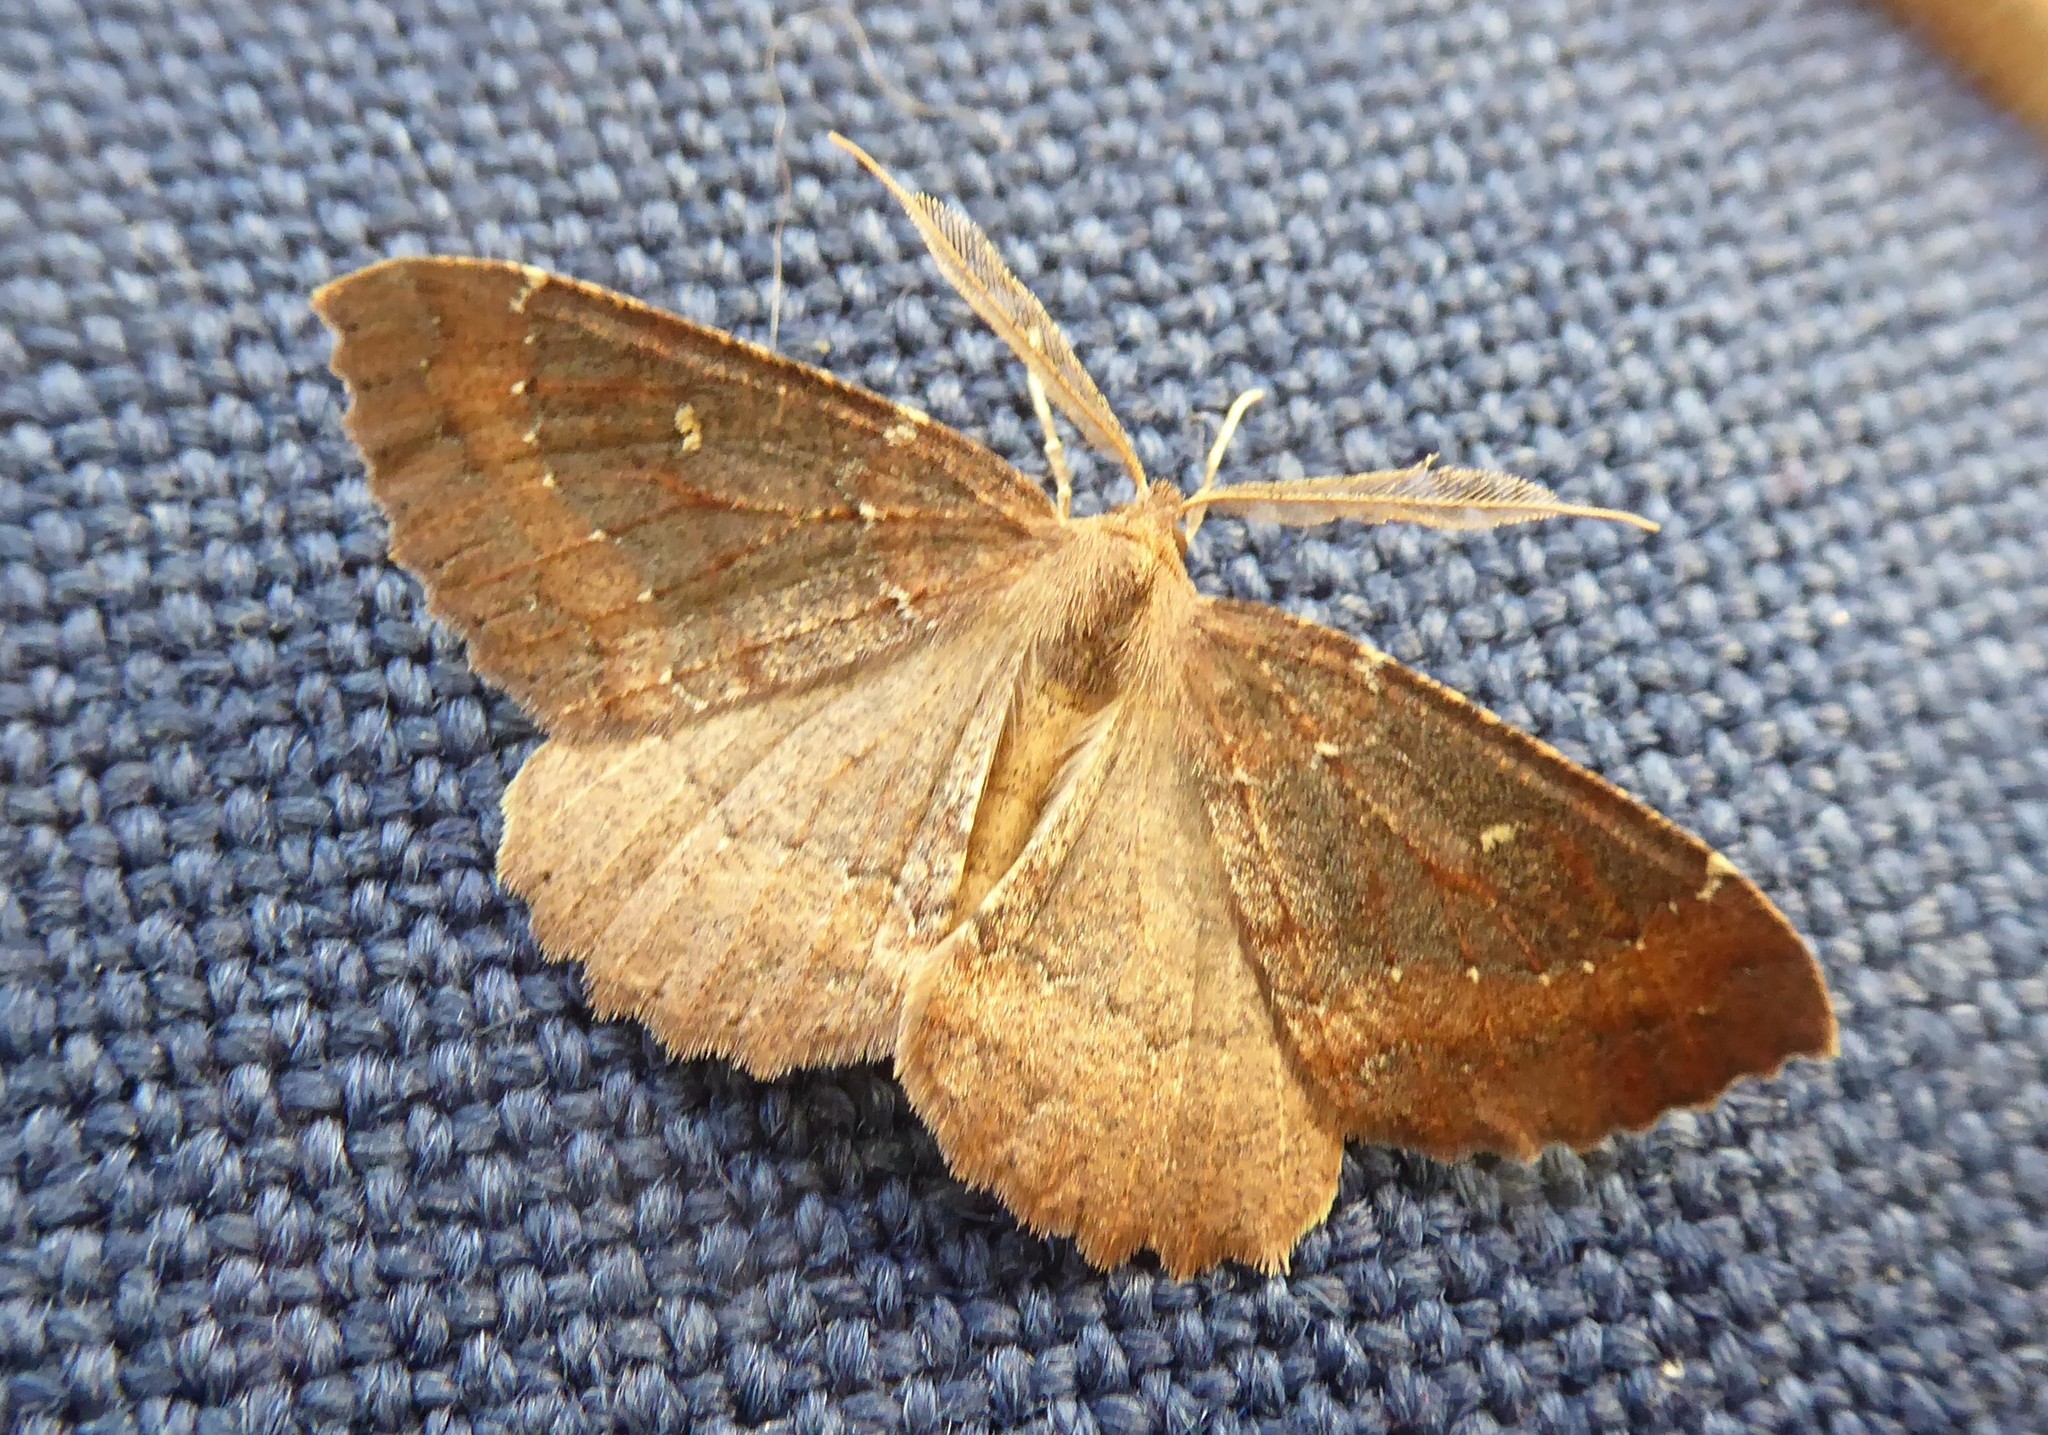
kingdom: Animalia
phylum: Arthropoda
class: Insecta
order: Lepidoptera
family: Geometridae
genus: Cleora
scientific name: Cleora scriptaria
